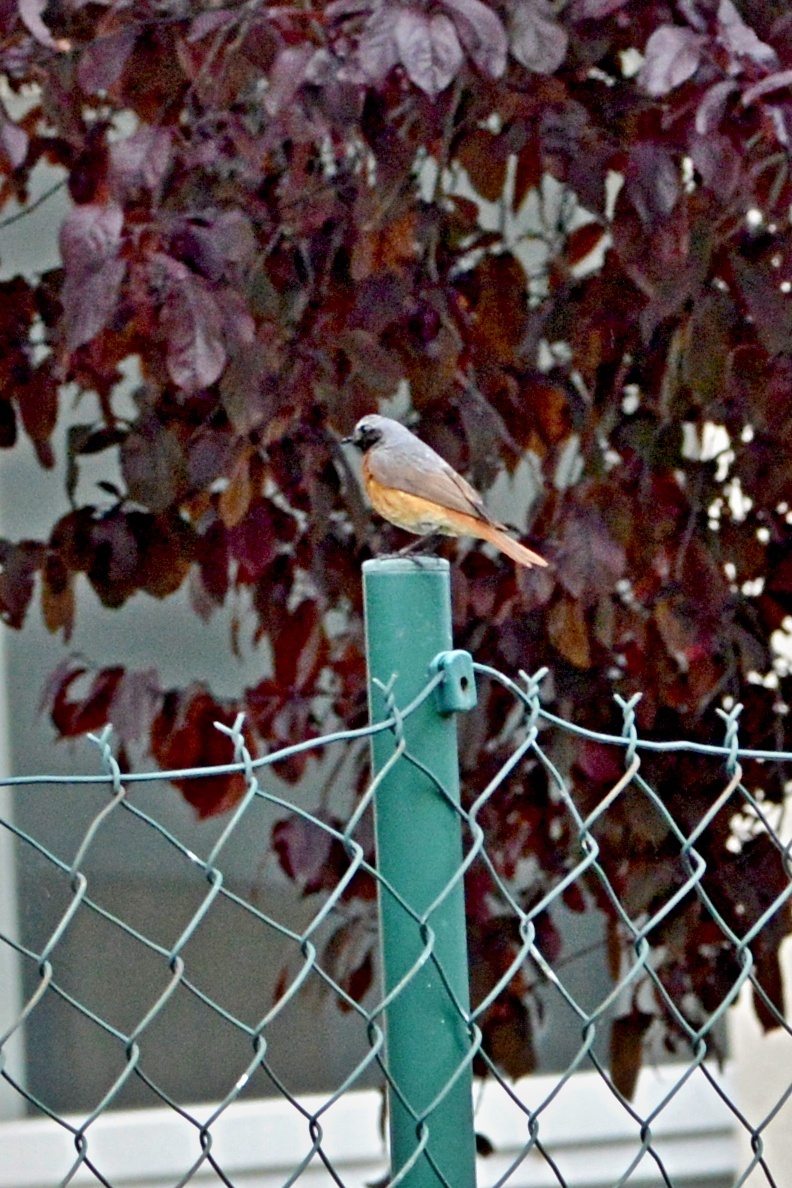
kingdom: Animalia
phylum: Chordata
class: Aves
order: Passeriformes
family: Muscicapidae
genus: Phoenicurus
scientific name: Phoenicurus phoenicurus
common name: Common redstart
